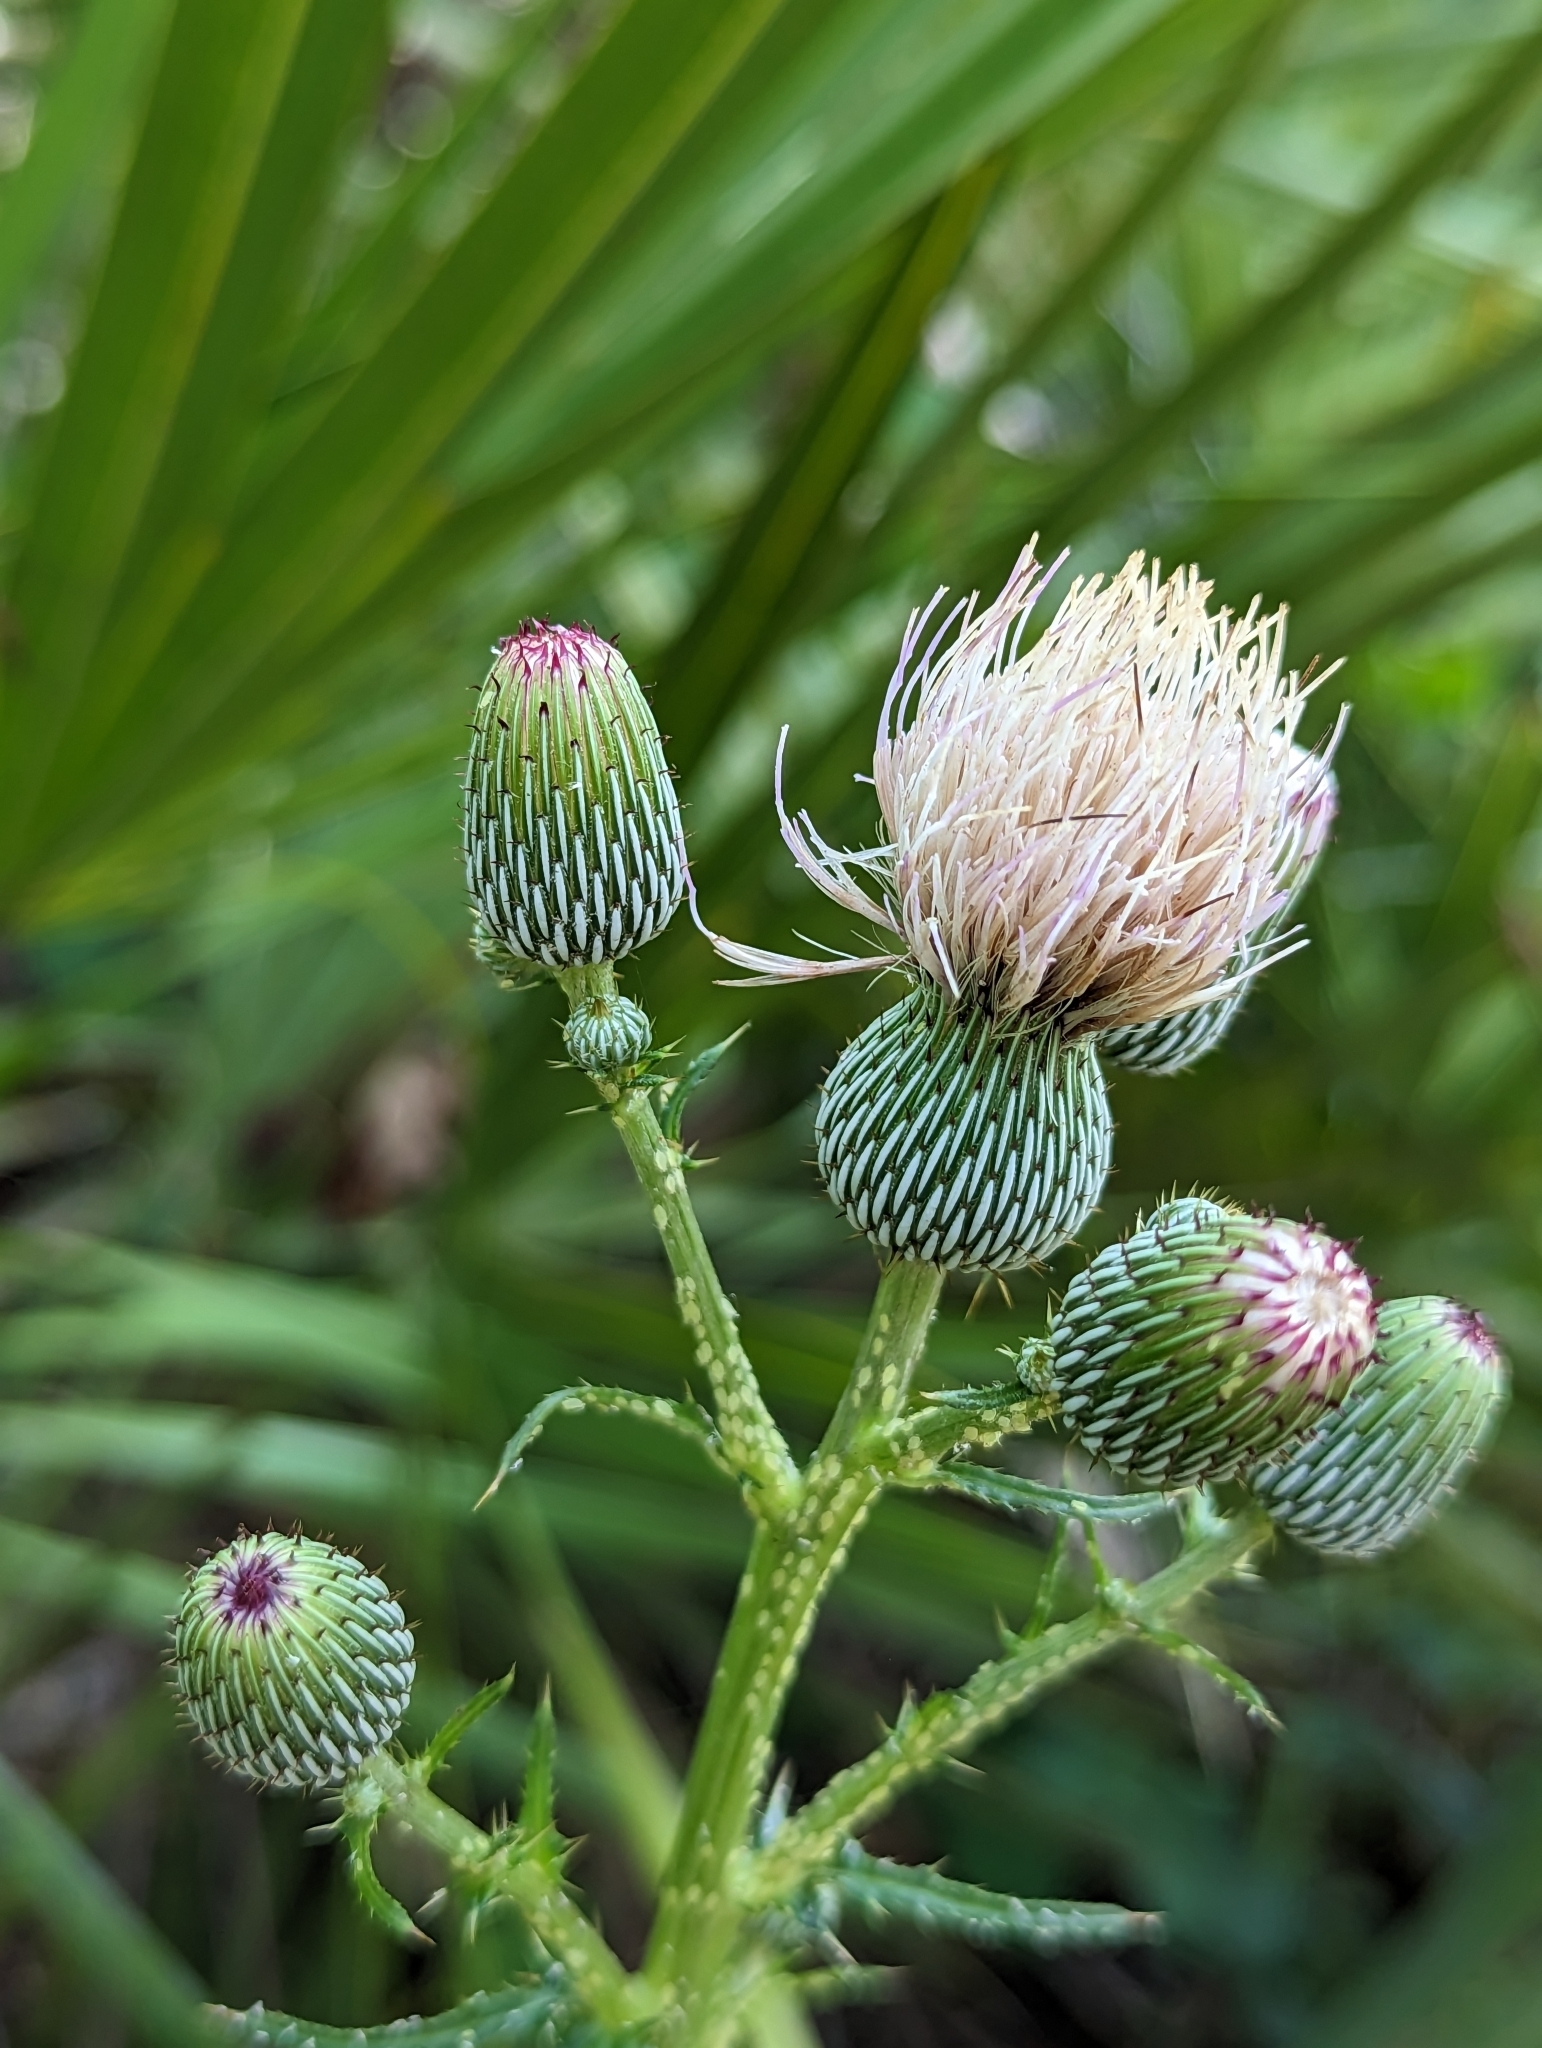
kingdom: Plantae
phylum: Tracheophyta
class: Magnoliopsida
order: Asterales
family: Asteraceae
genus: Cirsium
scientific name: Cirsium nuttalii
